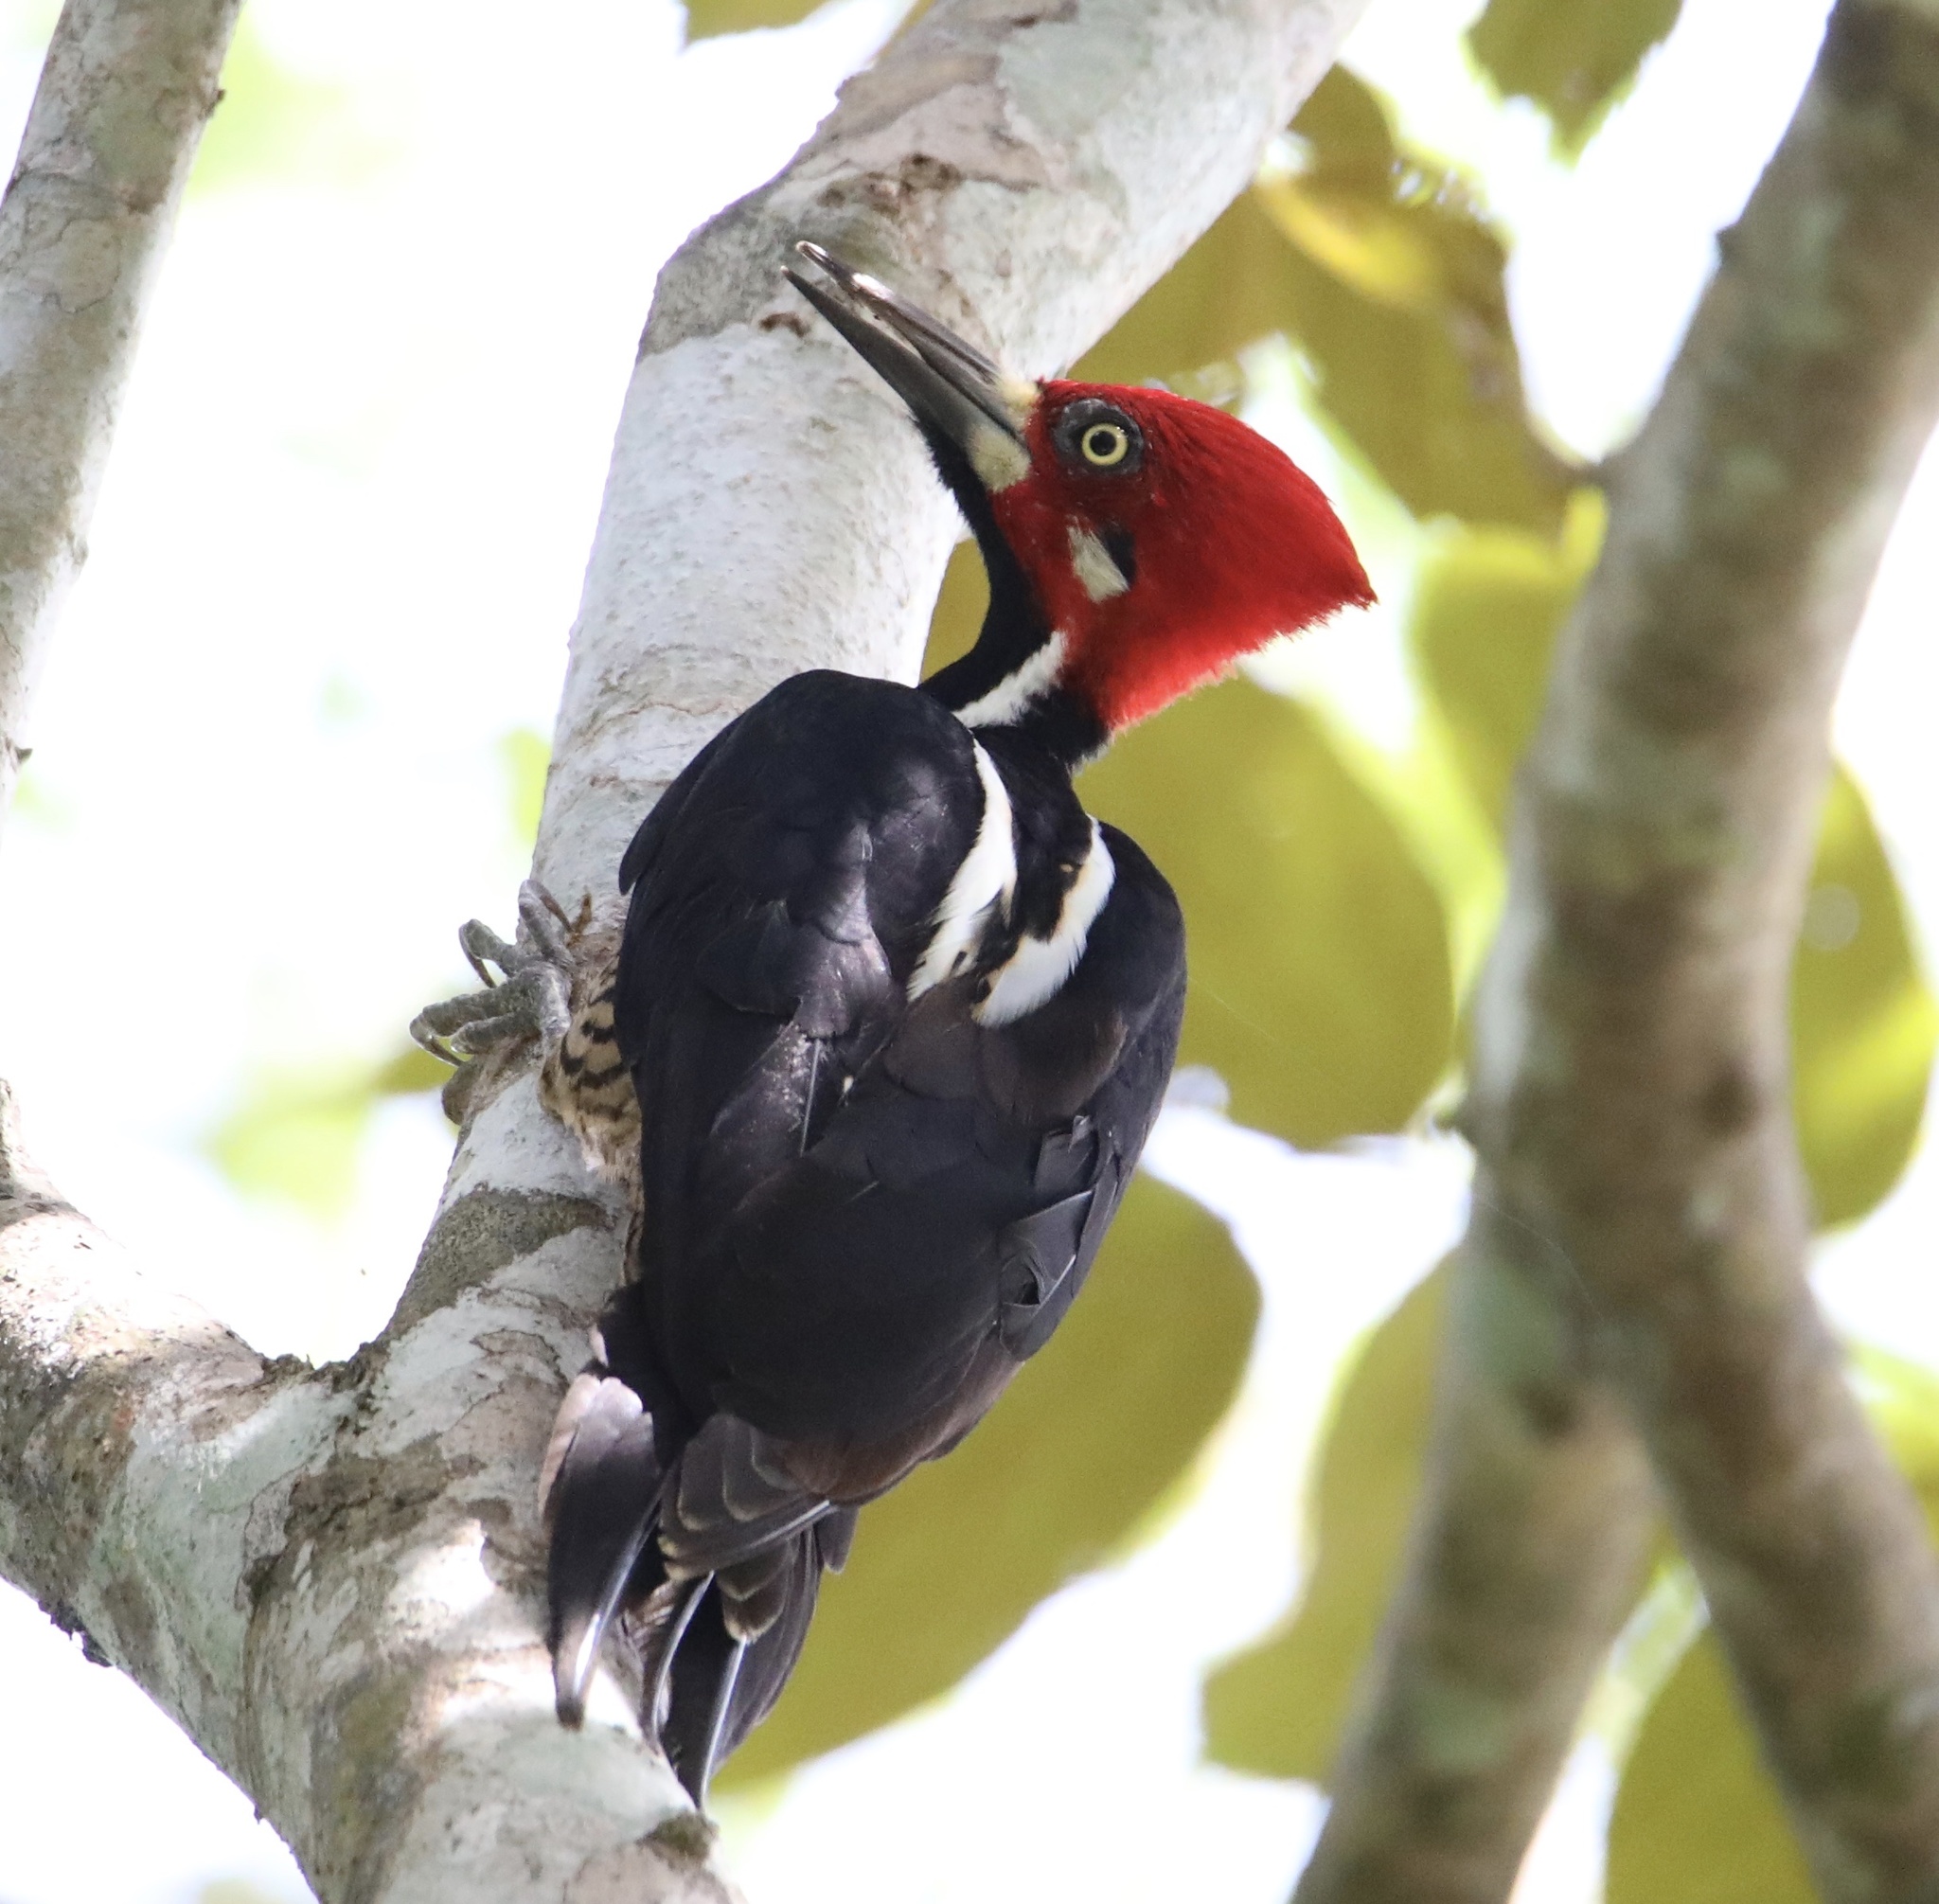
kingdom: Animalia
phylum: Chordata
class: Aves
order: Piciformes
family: Picidae
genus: Campephilus
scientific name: Campephilus melanoleucos
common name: Crimson-crested woodpecker
